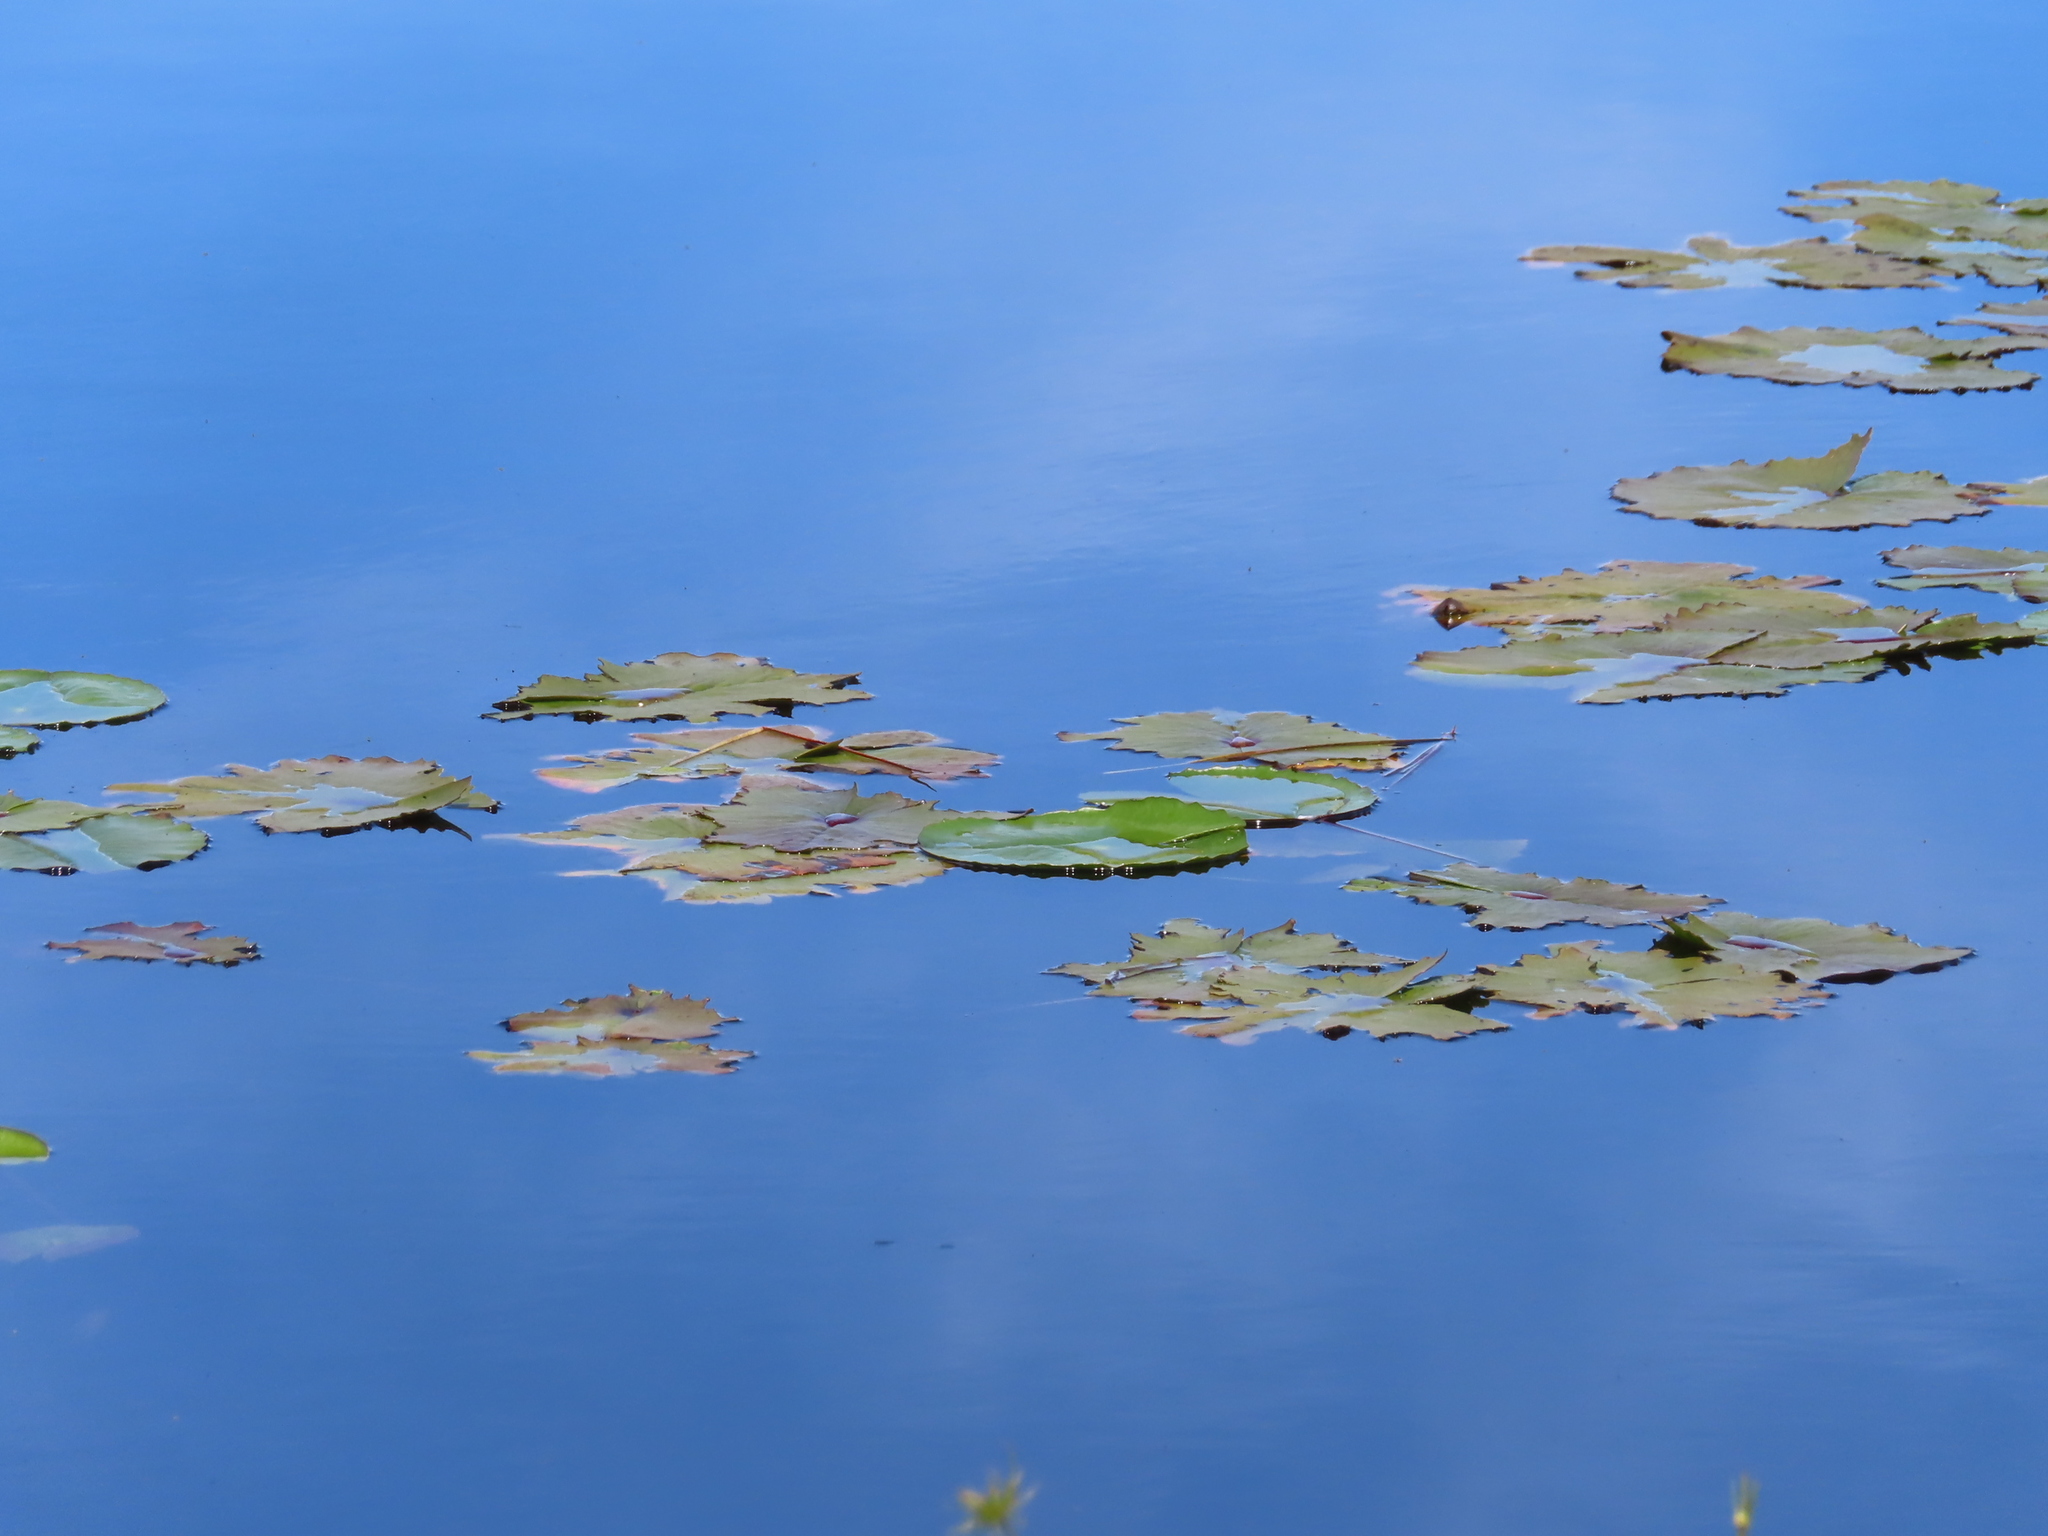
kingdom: Plantae
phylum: Tracheophyta
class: Magnoliopsida
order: Nymphaeales
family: Nymphaeaceae
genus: Nymphaea
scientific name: Nymphaea nouchali
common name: Blue lotus
